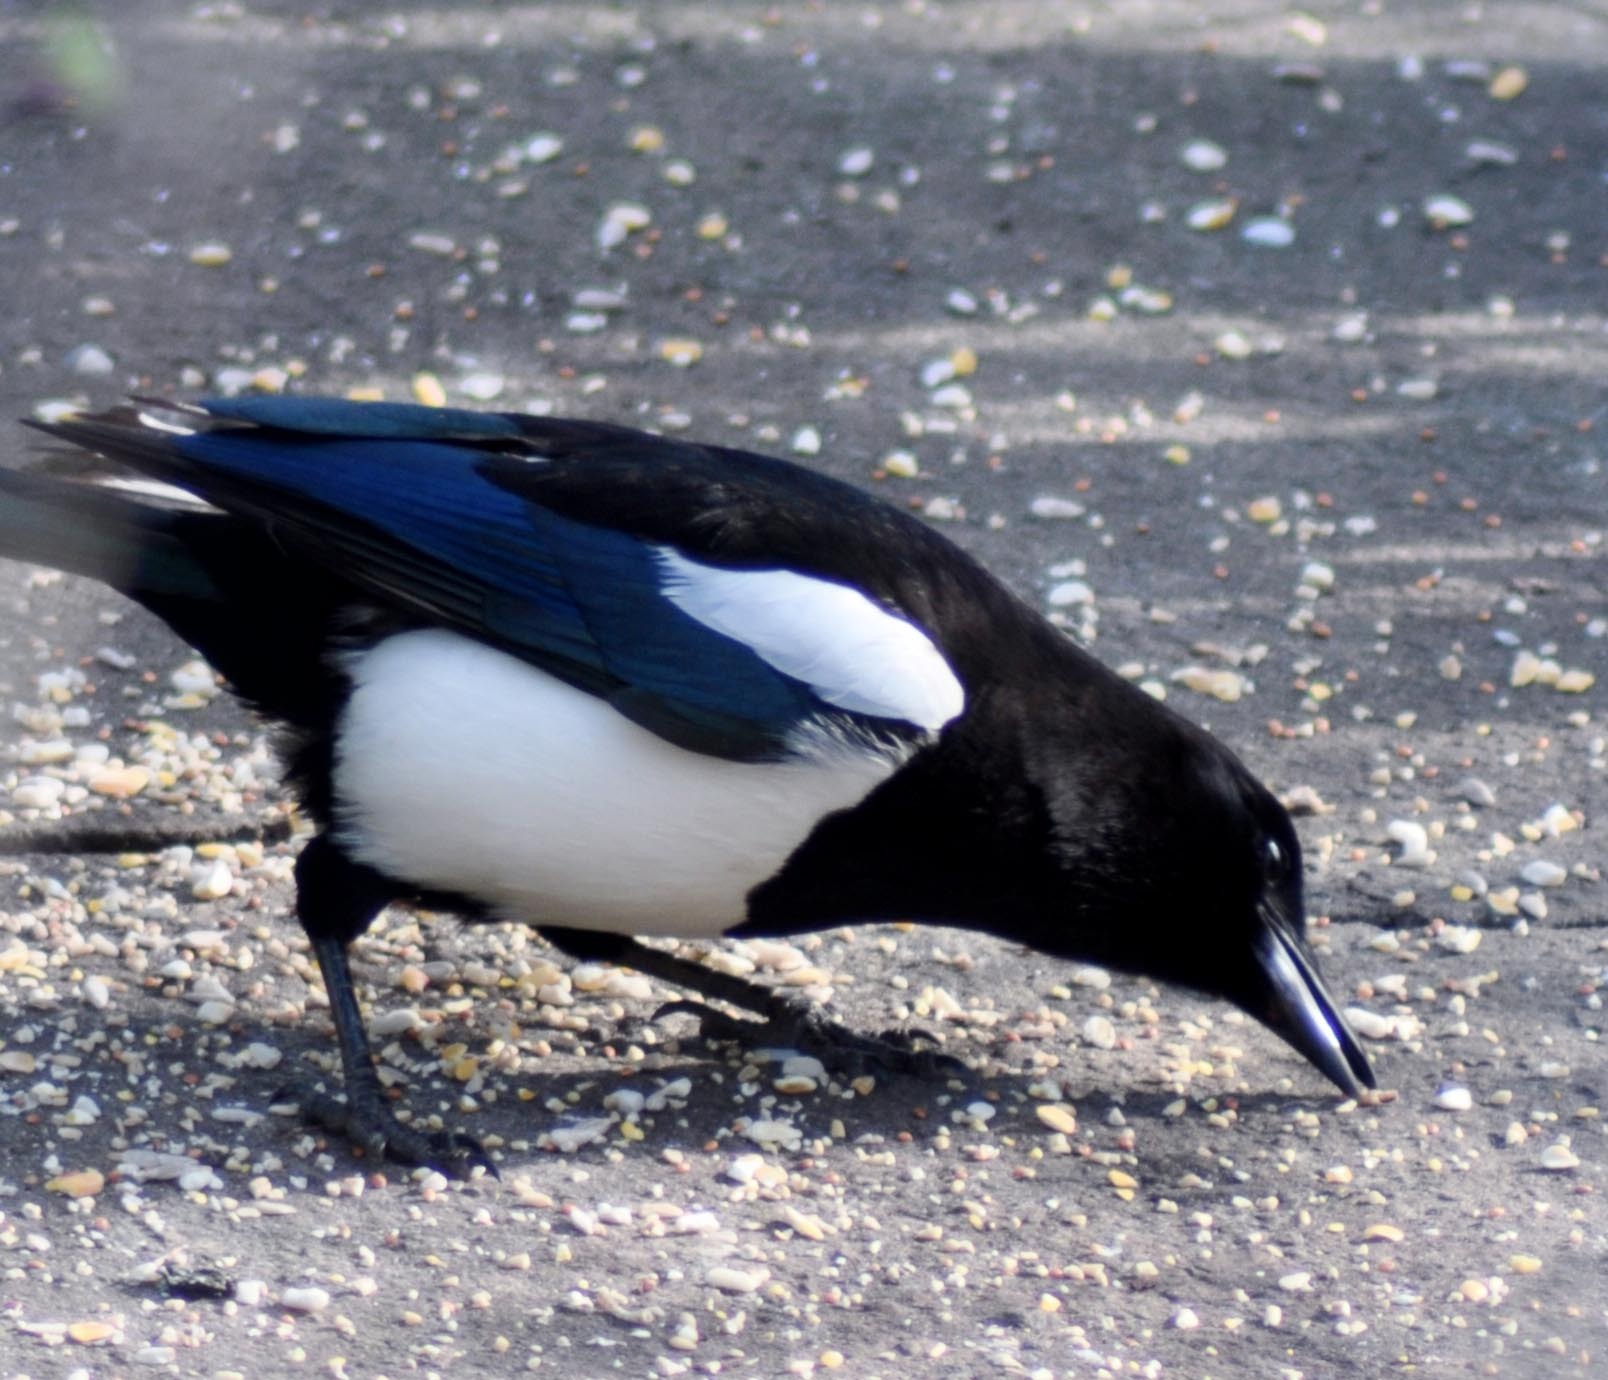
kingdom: Animalia
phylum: Chordata
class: Aves
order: Passeriformes
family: Corvidae
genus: Pica
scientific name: Pica pica
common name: Eurasian magpie
